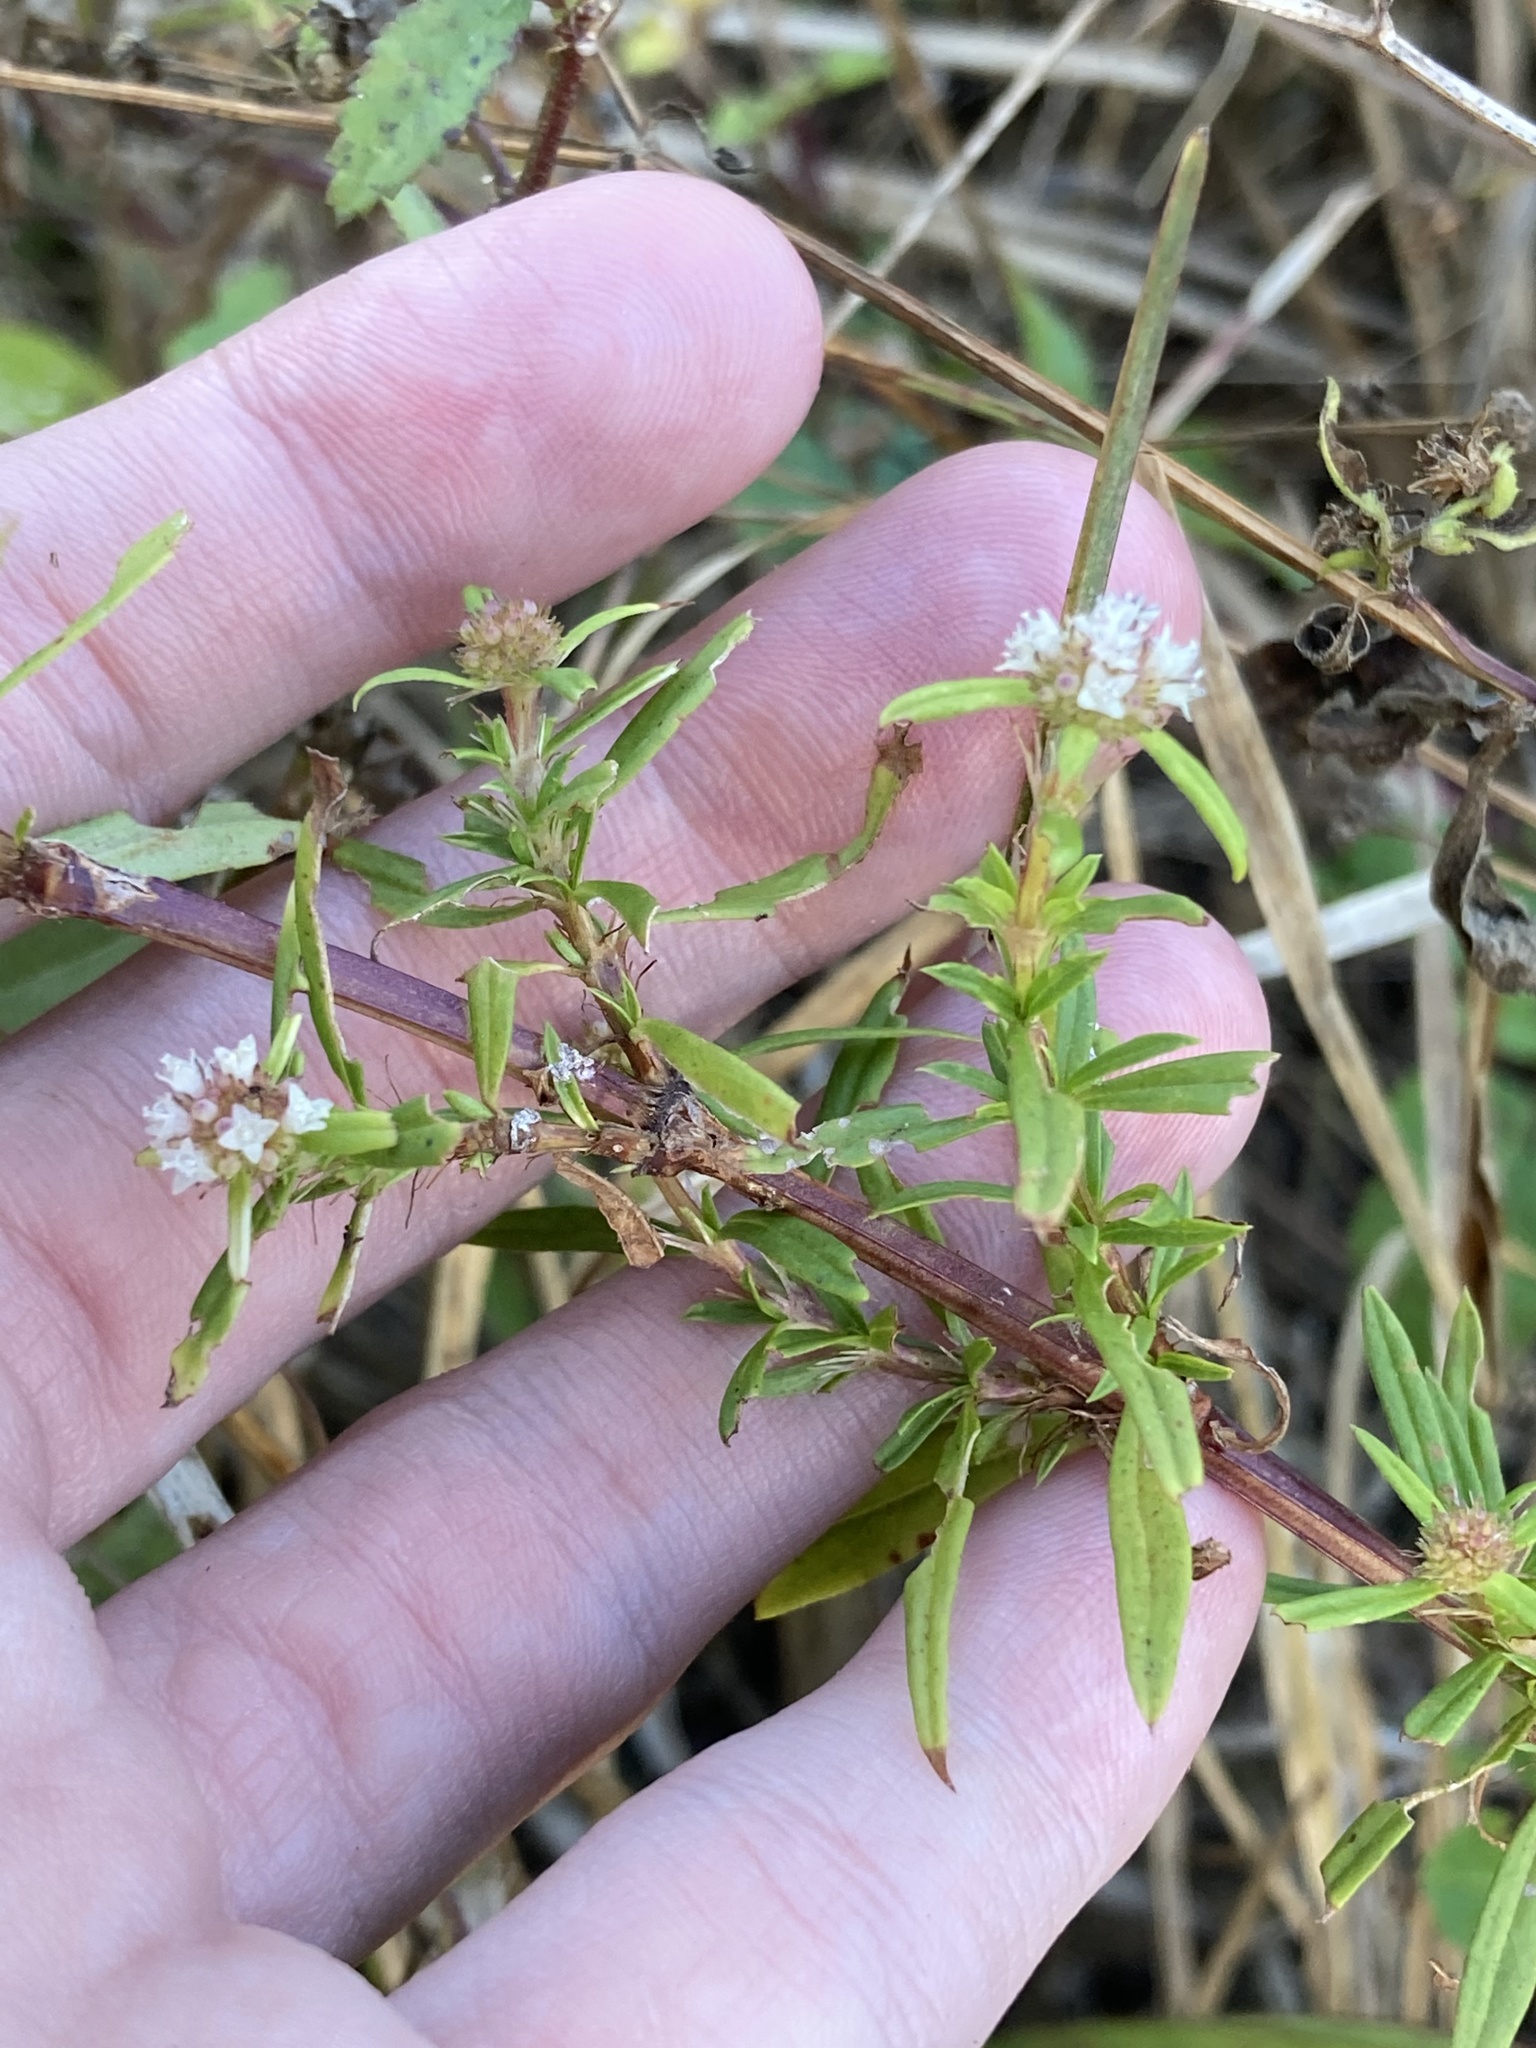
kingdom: Plantae
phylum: Tracheophyta
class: Magnoliopsida
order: Gentianales
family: Rubiaceae
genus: Spermacoce
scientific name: Spermacoce verticillata
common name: Shrubby false buttonweed
